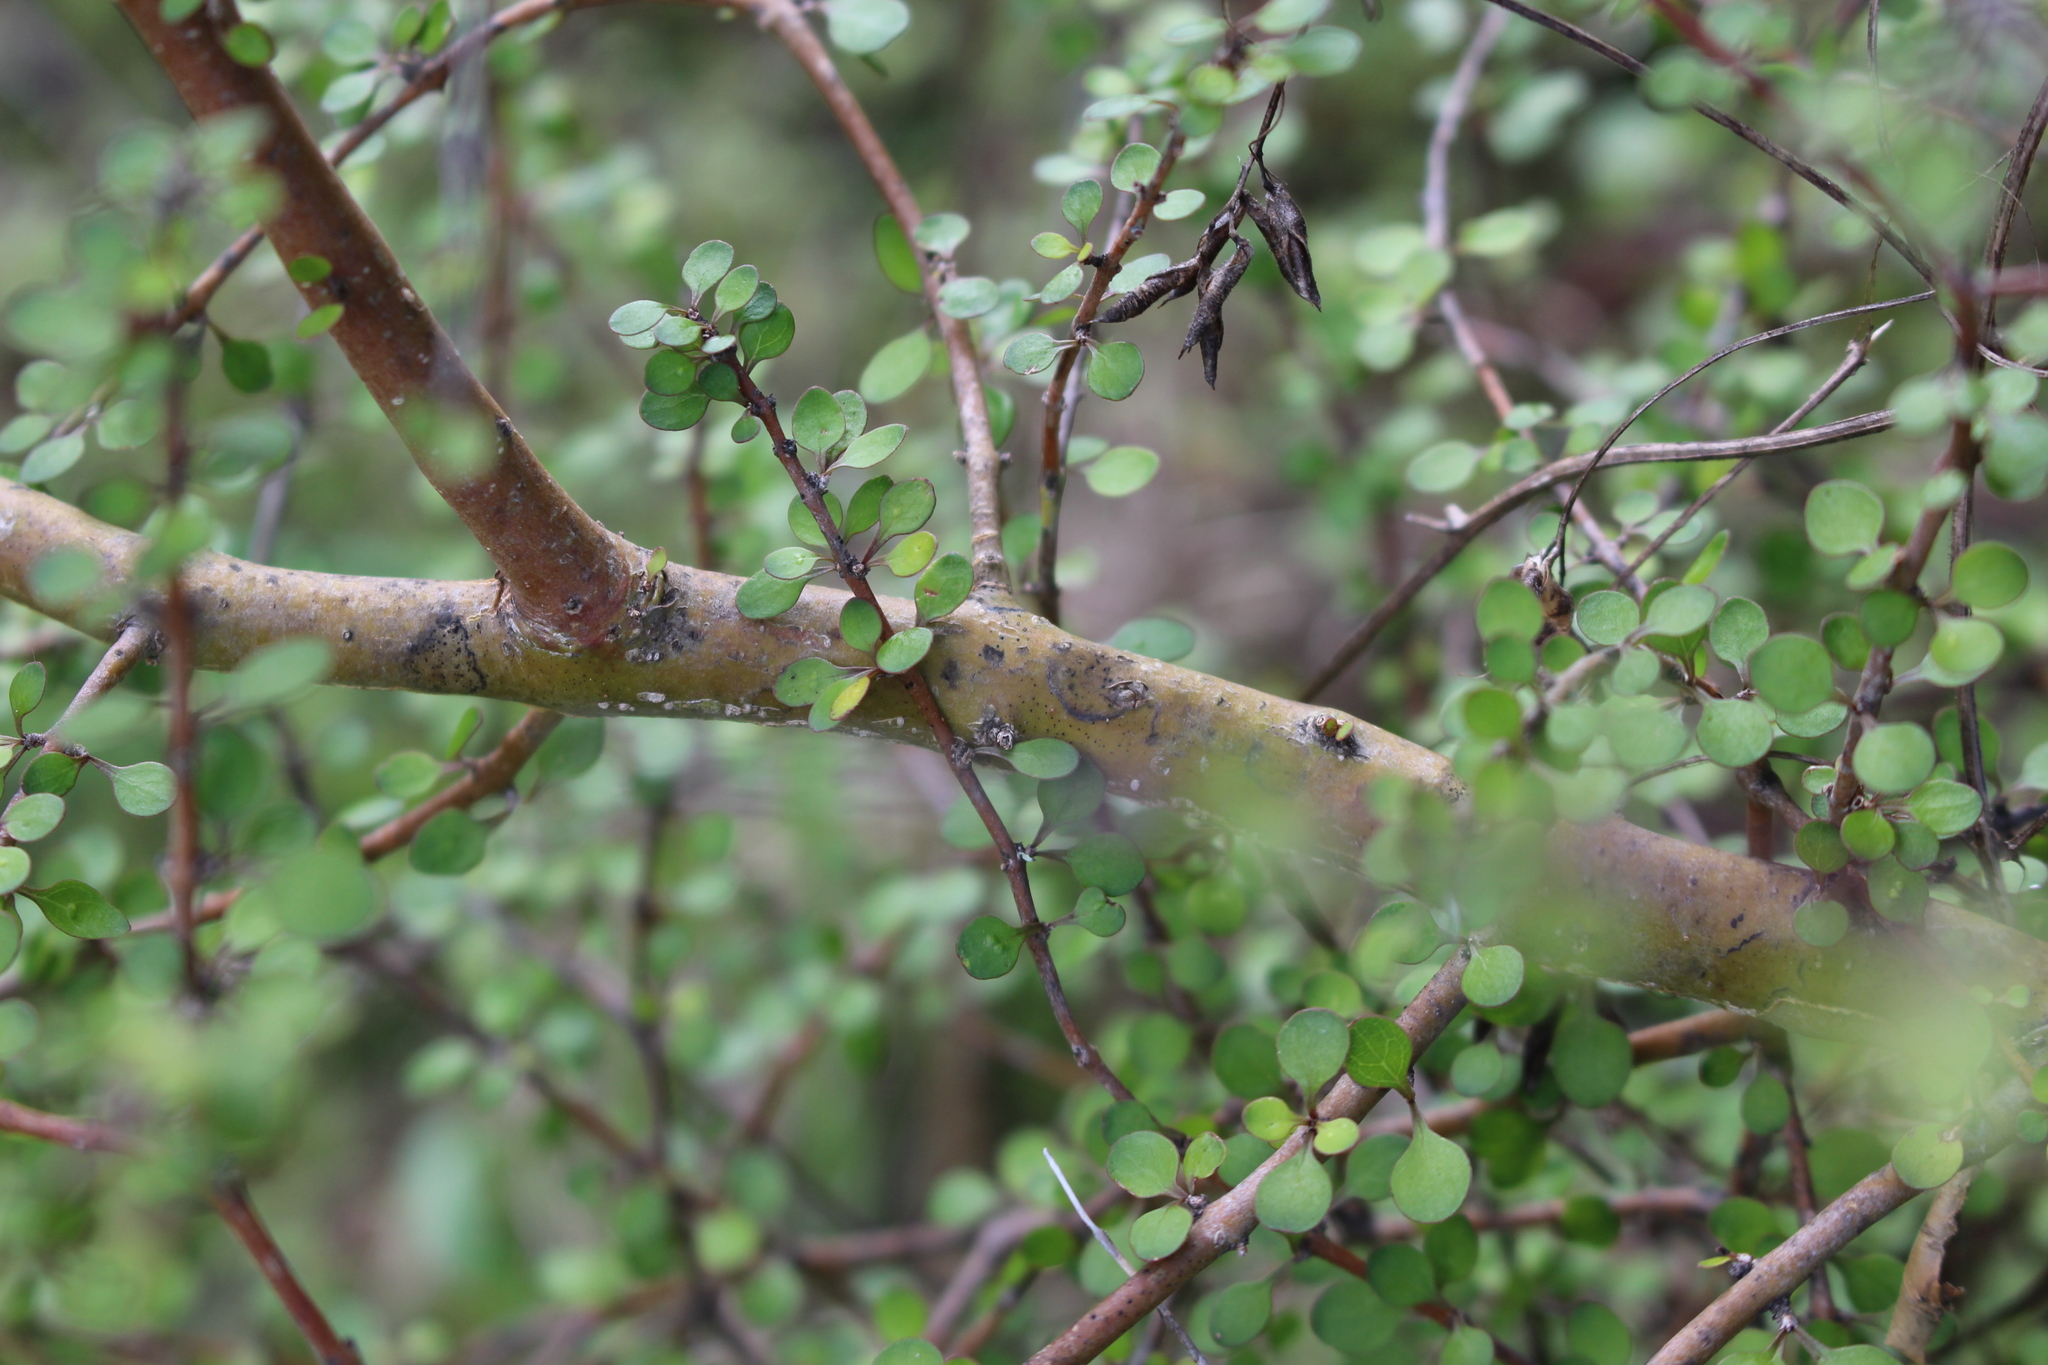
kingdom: Plantae
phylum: Tracheophyta
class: Magnoliopsida
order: Gentianales
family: Rubiaceae
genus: Coprosma
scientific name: Coprosma virescens
